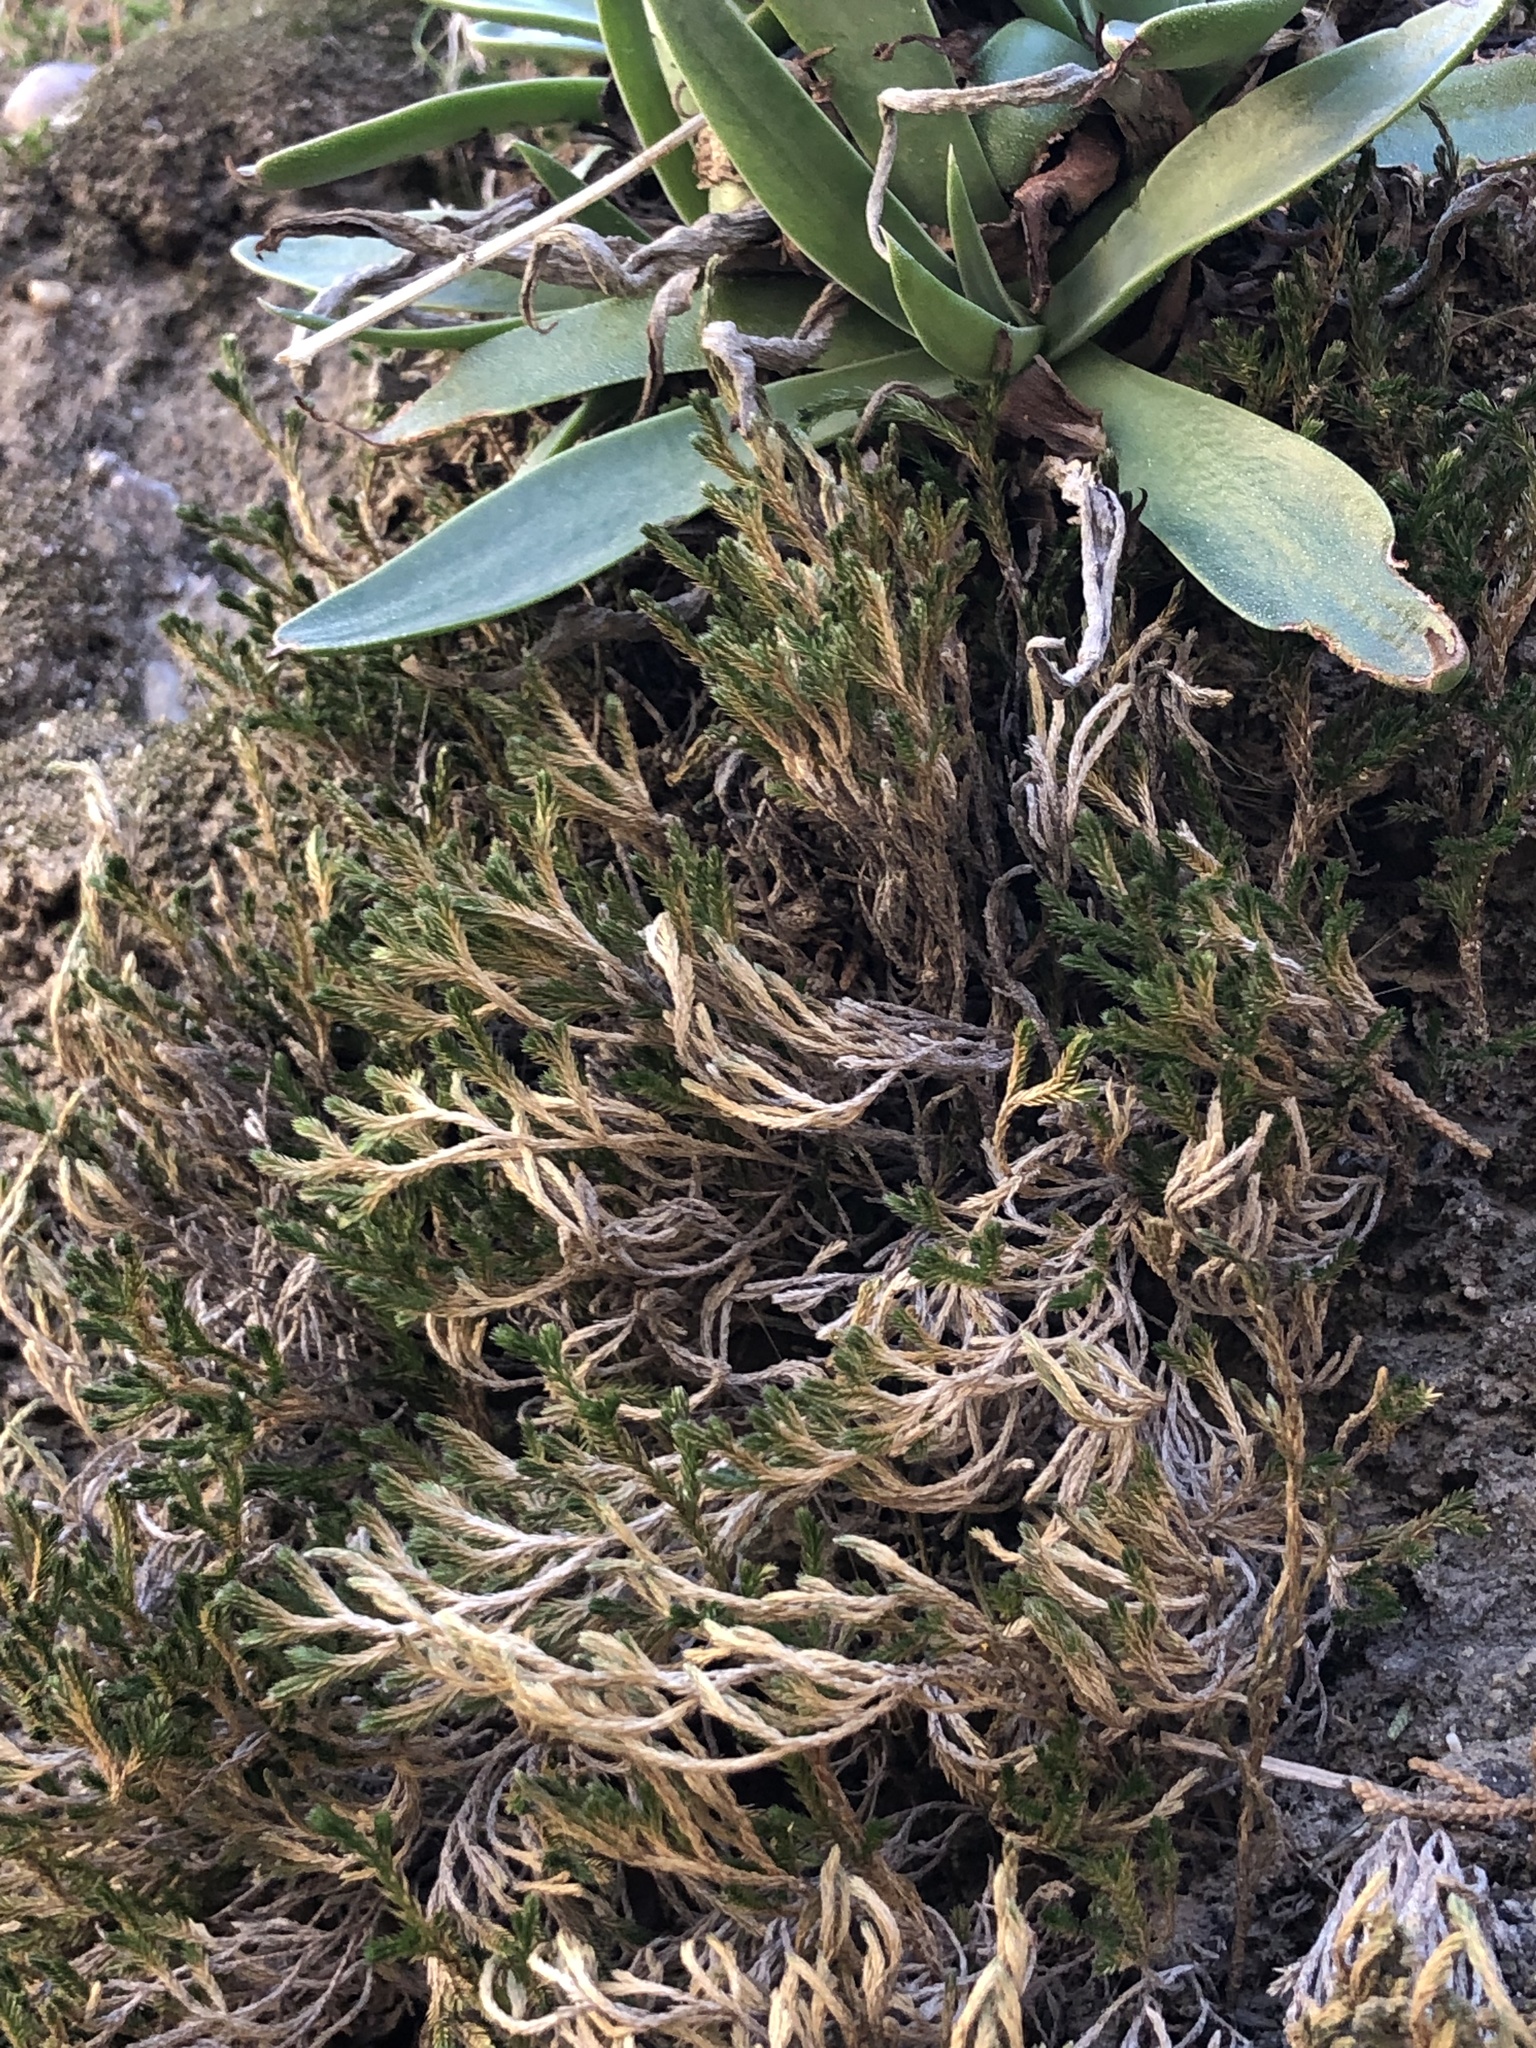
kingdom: Plantae
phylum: Tracheophyta
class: Lycopodiopsida
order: Selaginellales
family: Selaginellaceae
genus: Selaginella
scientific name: Selaginella bigelovii
